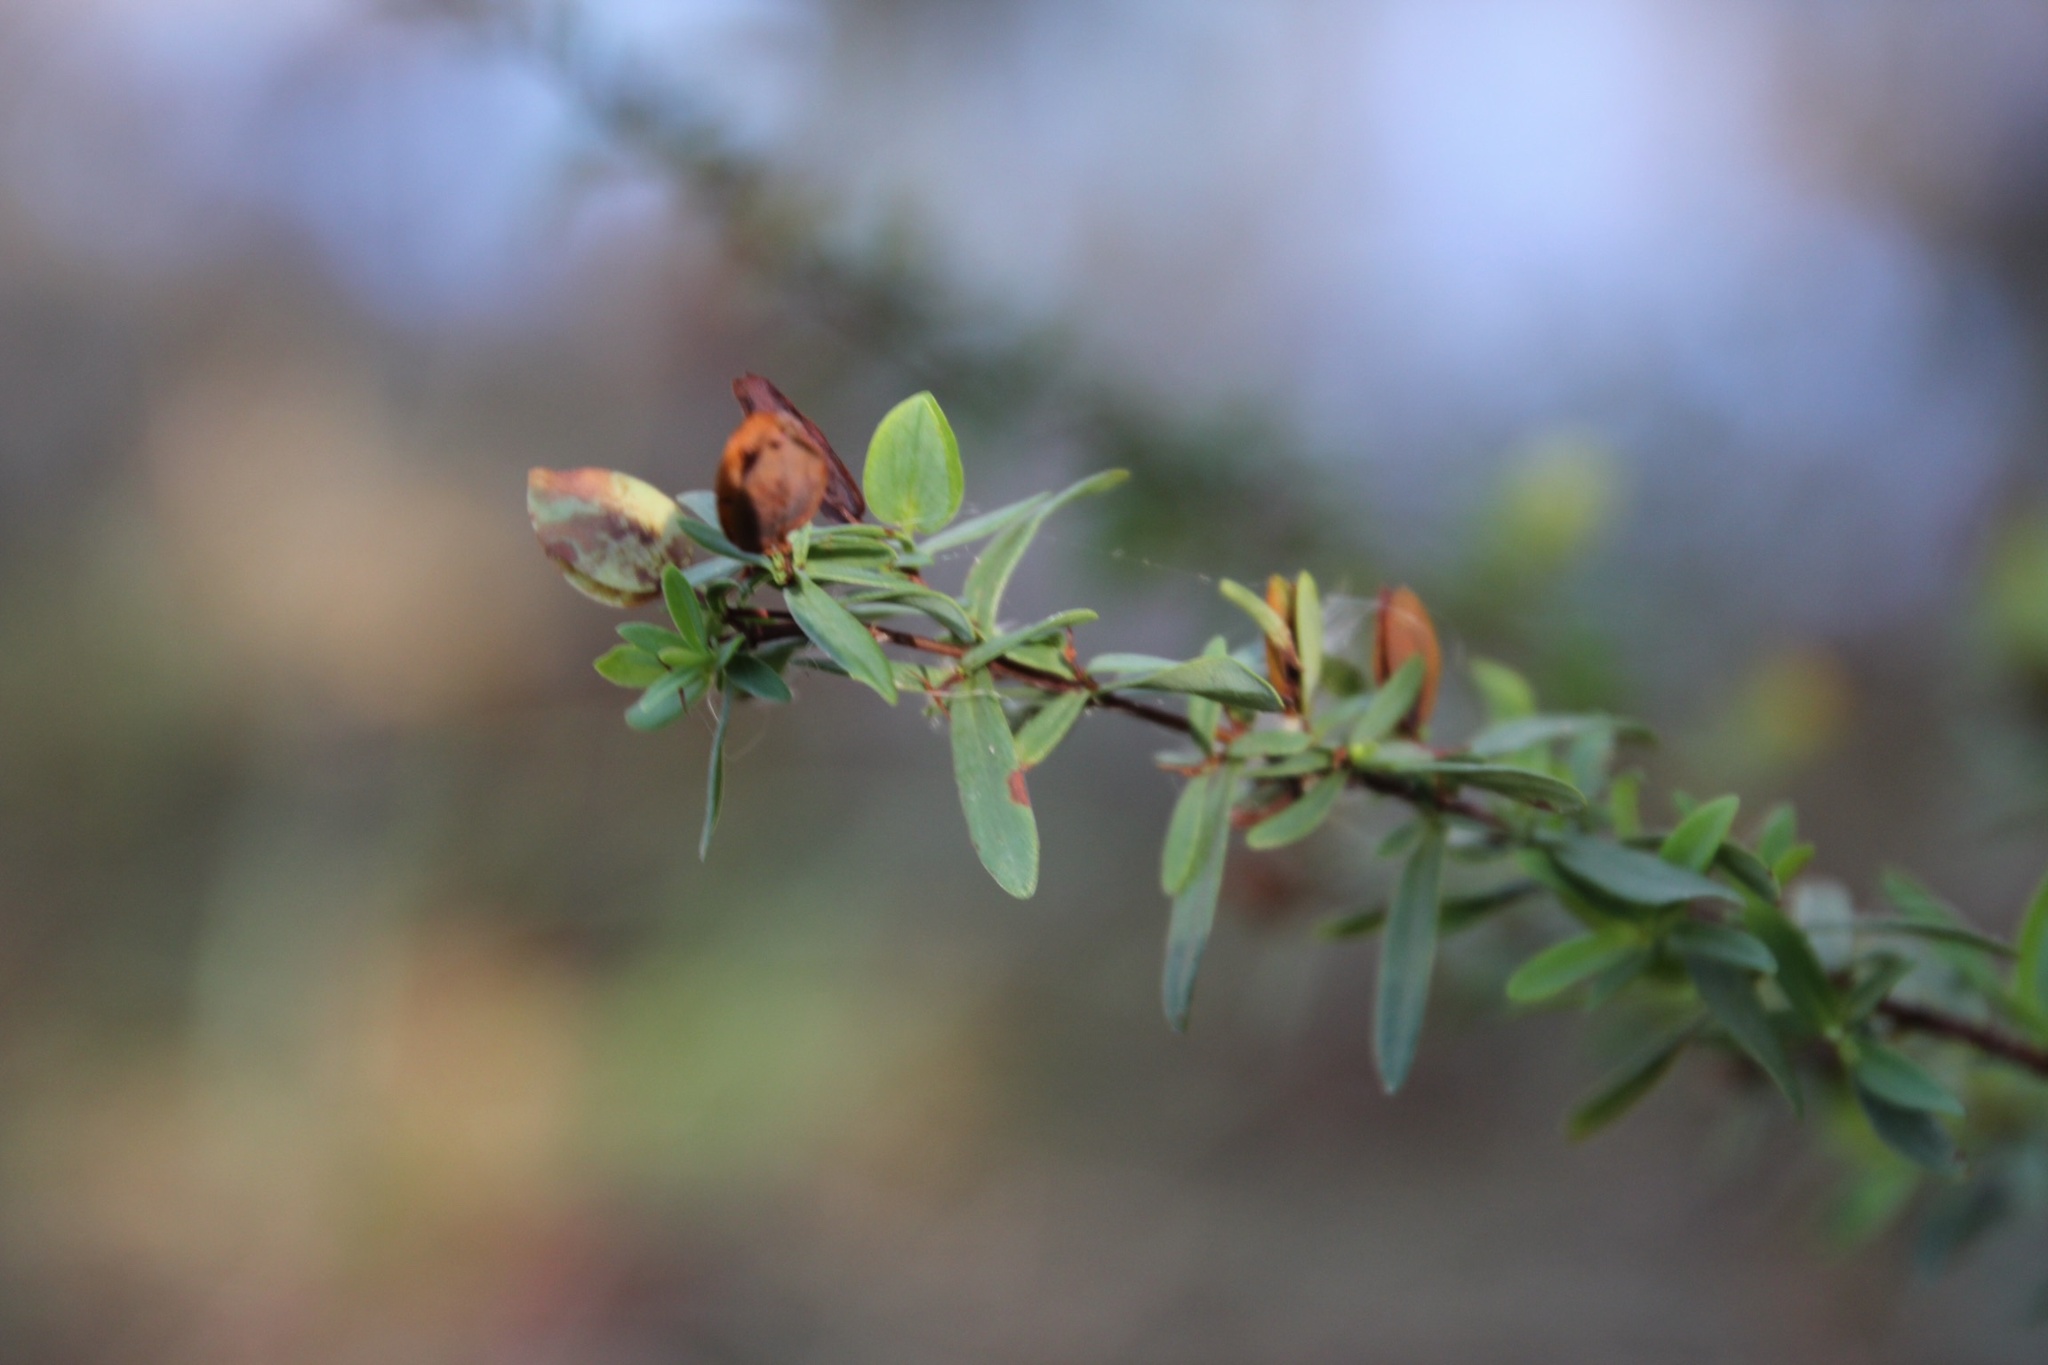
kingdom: Plantae
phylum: Tracheophyta
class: Magnoliopsida
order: Malpighiales
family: Hypericaceae
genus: Hypericum
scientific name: Hypericum hypericoides
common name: St. andrew's cross
